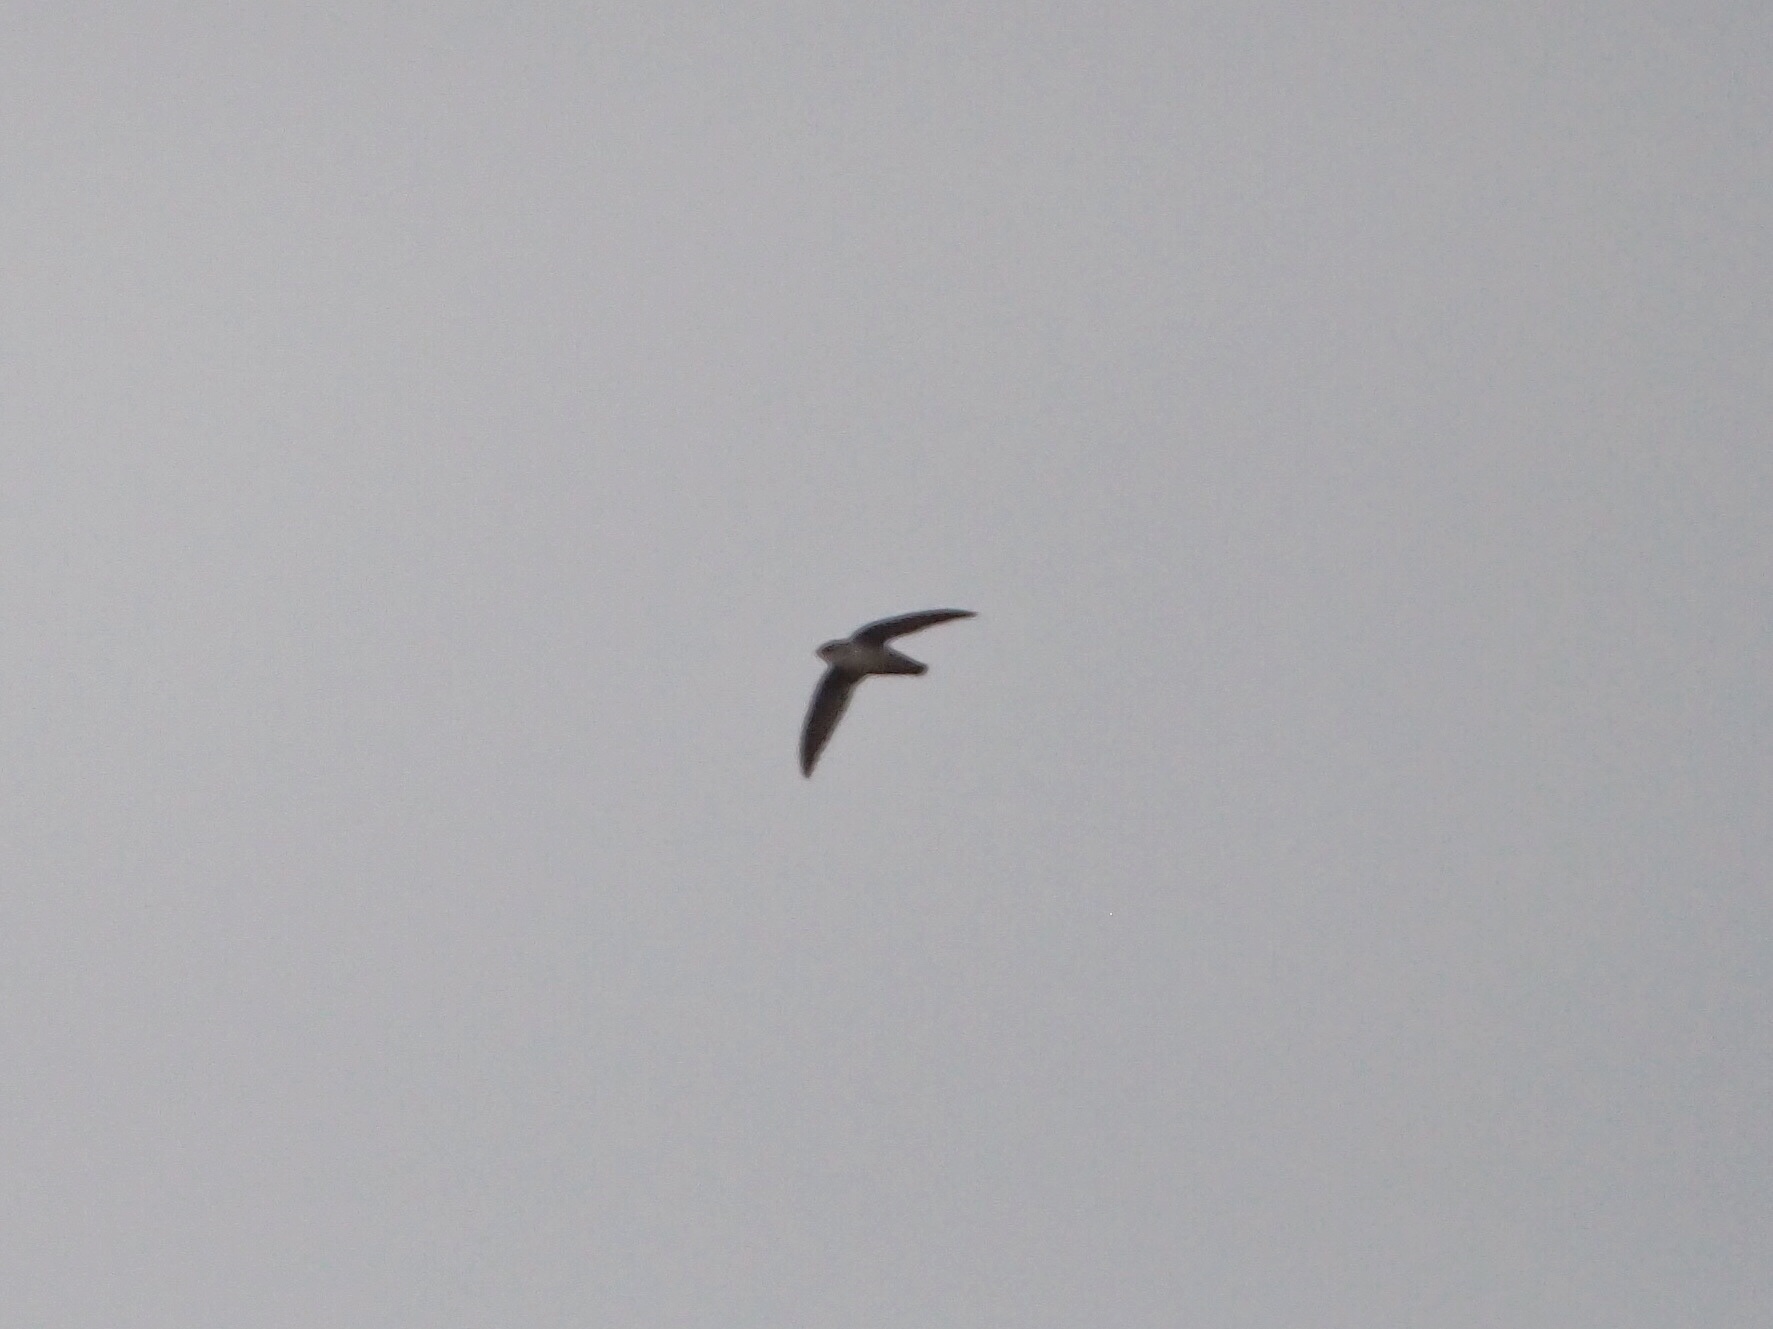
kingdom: Animalia
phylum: Chordata
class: Aves
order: Apodiformes
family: Apodidae
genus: Chaetura
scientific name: Chaetura vauxi
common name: Vaux's swift
